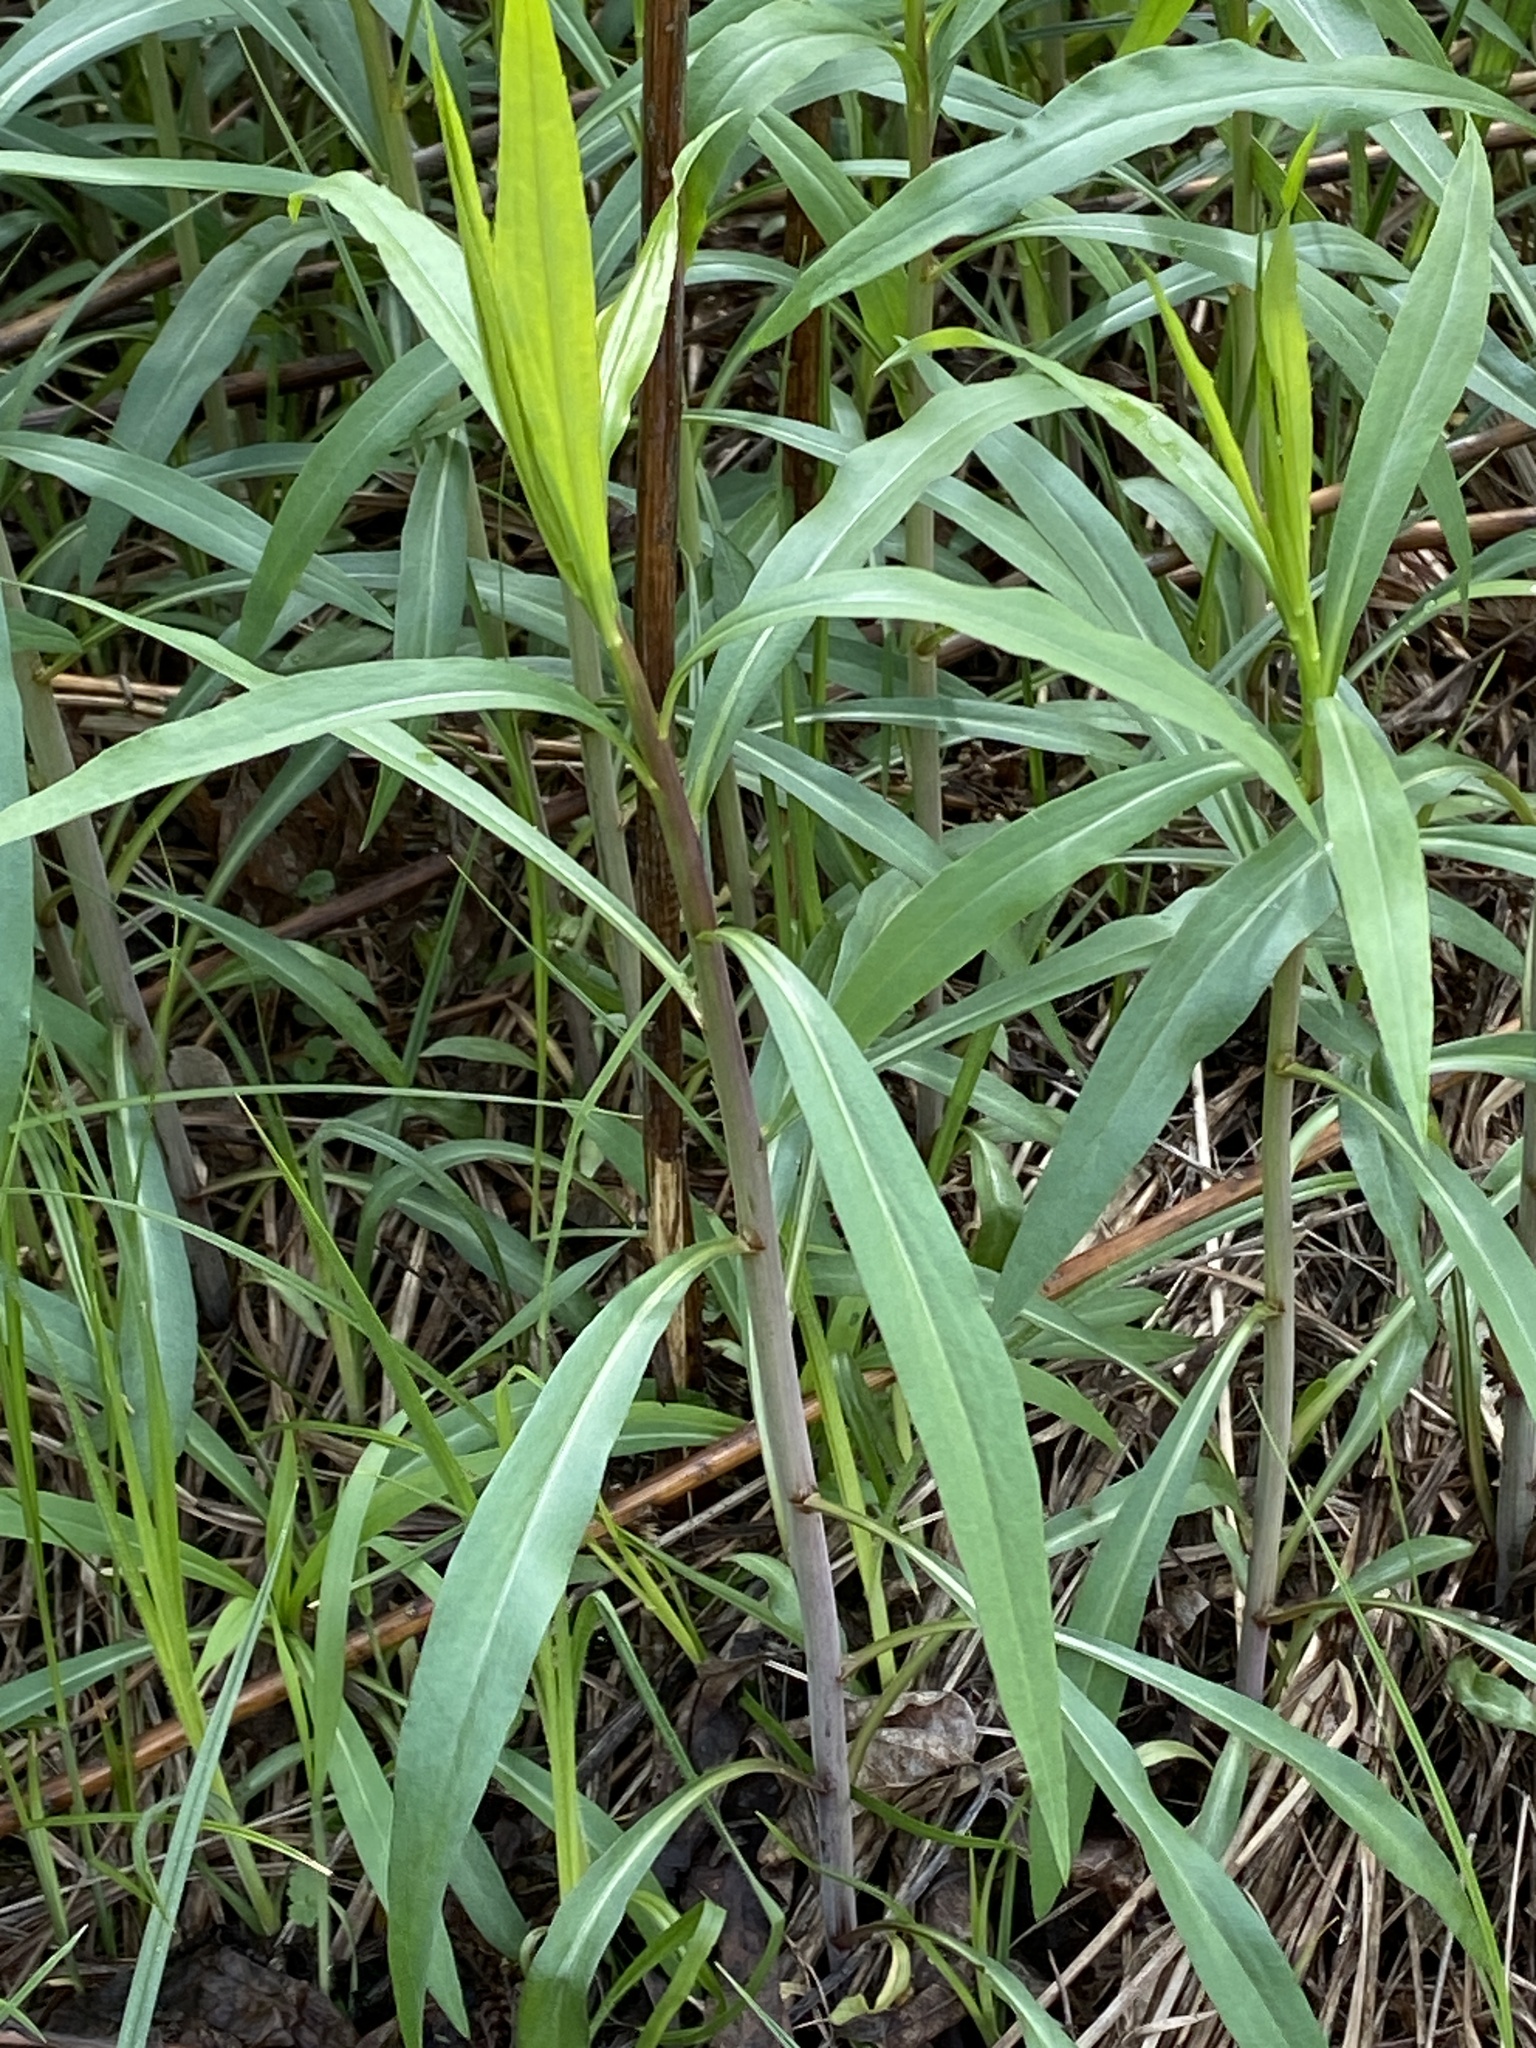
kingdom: Plantae
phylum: Tracheophyta
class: Magnoliopsida
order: Asterales
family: Asteraceae
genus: Solidago
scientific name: Solidago gigantea
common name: Giant goldenrod
